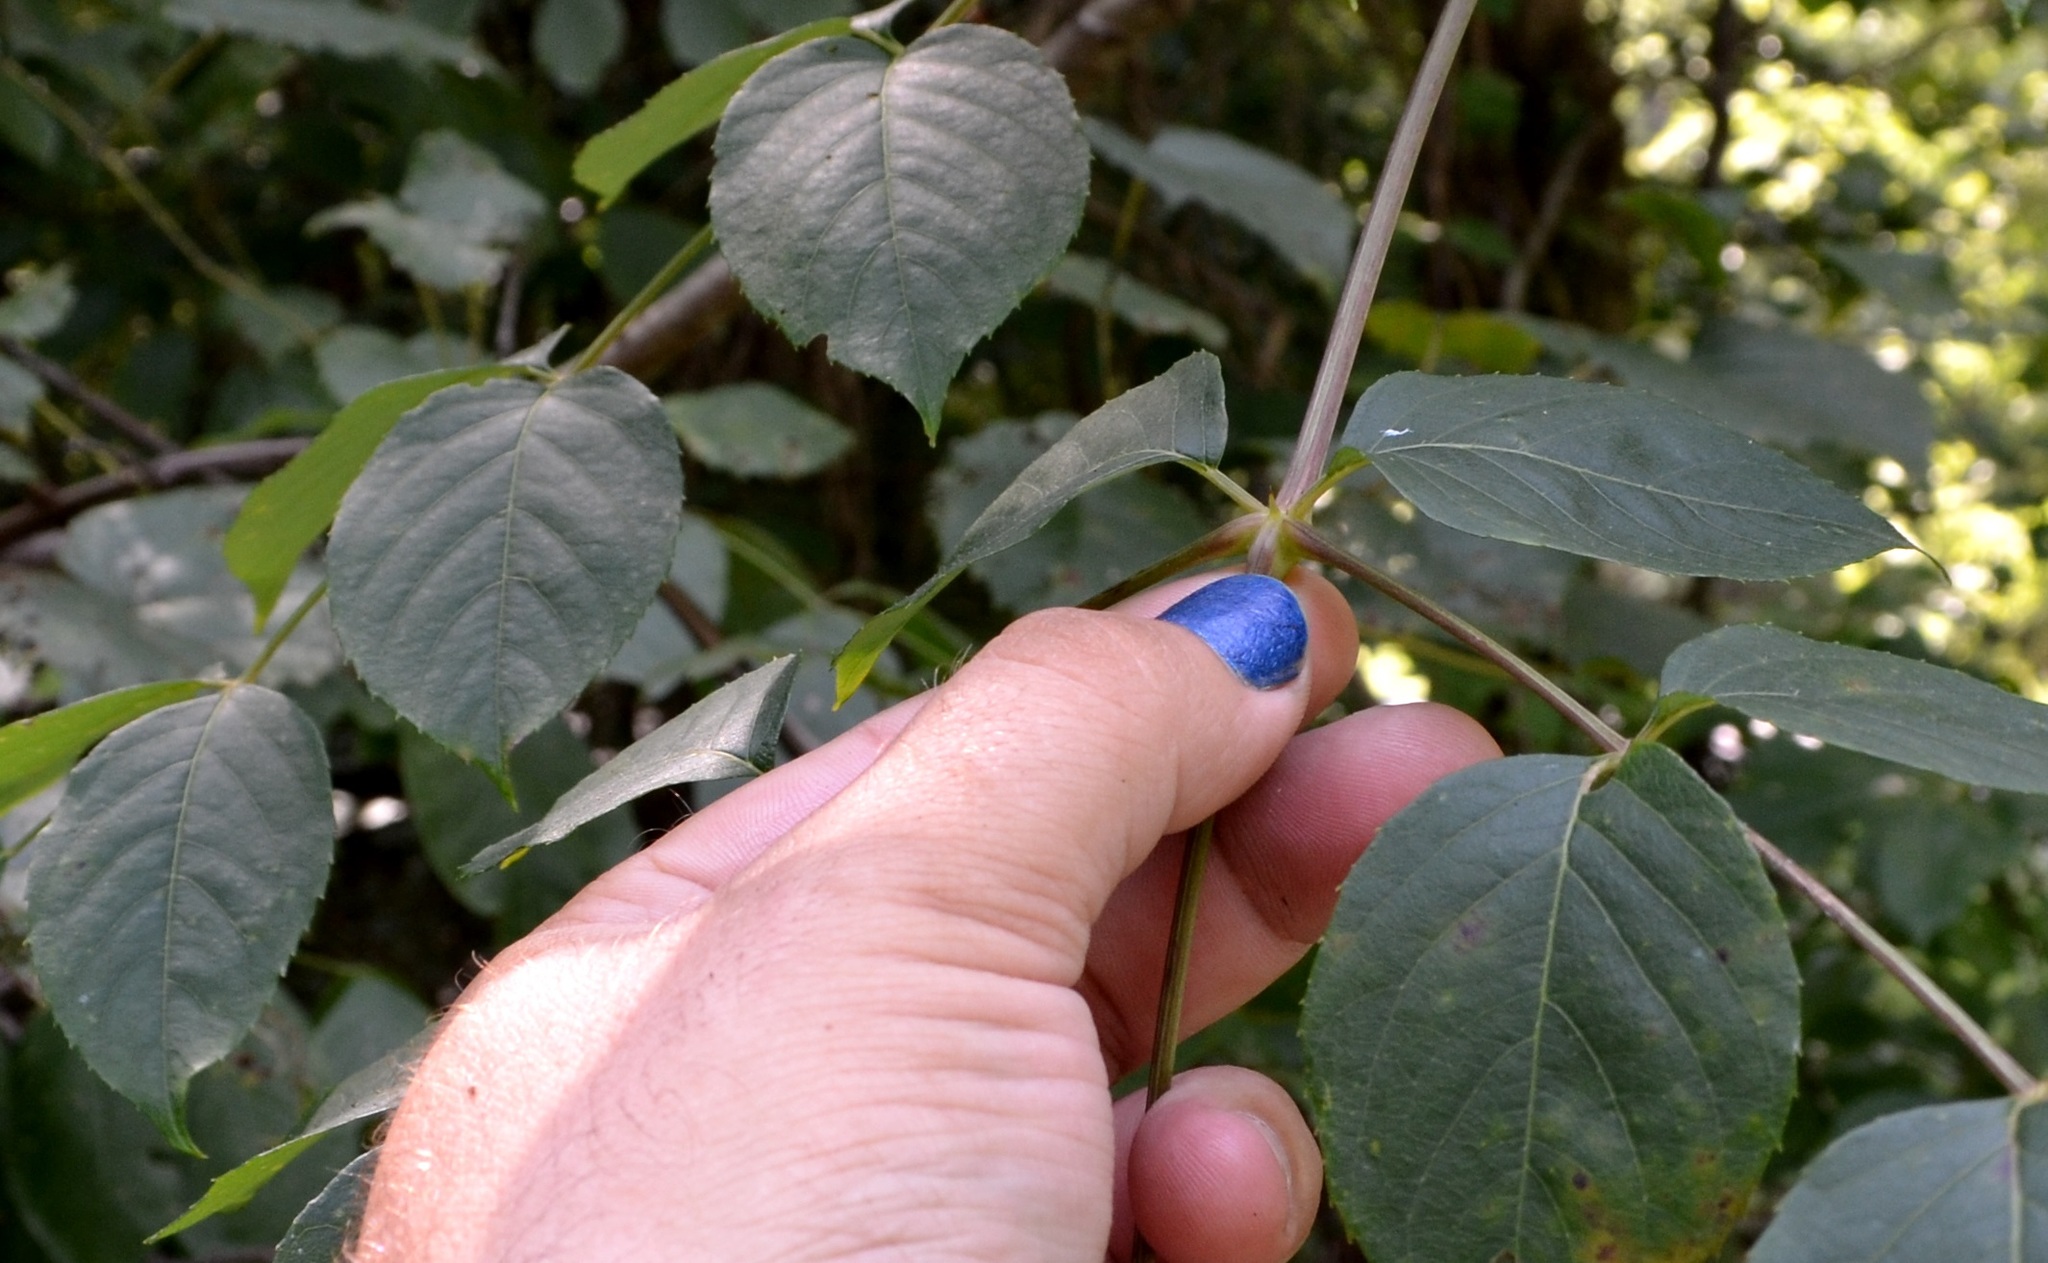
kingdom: Plantae
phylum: Tracheophyta
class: Magnoliopsida
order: Apiales
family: Araliaceae
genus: Aralia
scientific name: Aralia spinosa
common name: Hercules'-club
